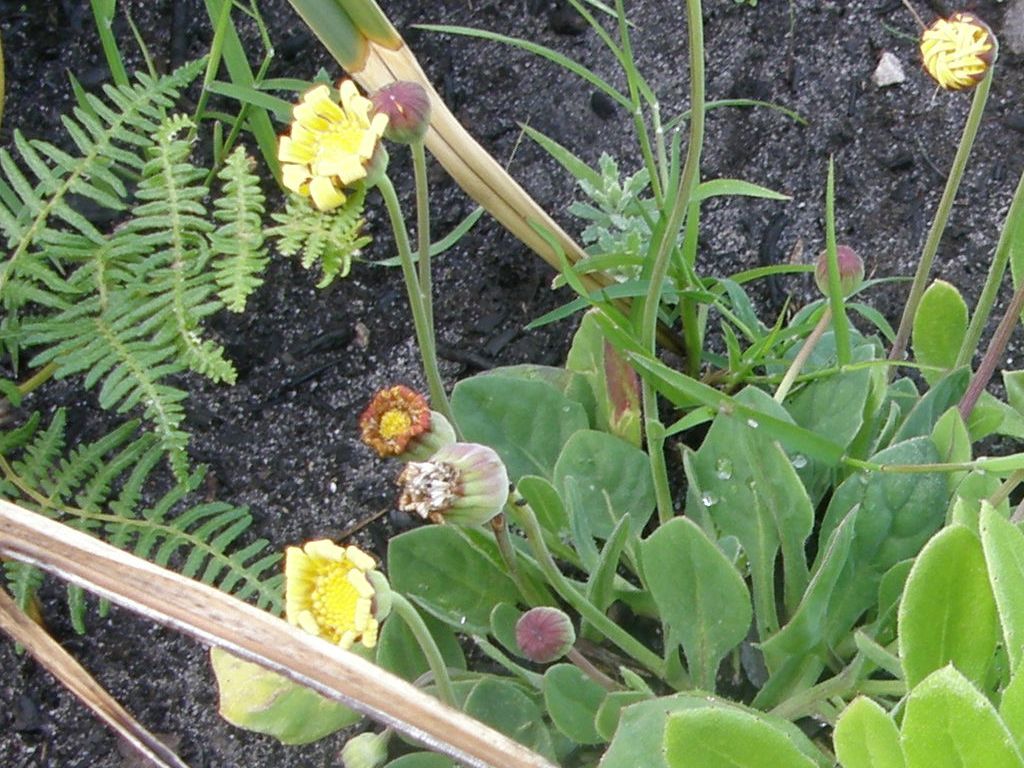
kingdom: Plantae
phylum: Tracheophyta
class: Magnoliopsida
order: Asterales
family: Asteraceae
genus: Othonna
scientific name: Othonna bulbosa
